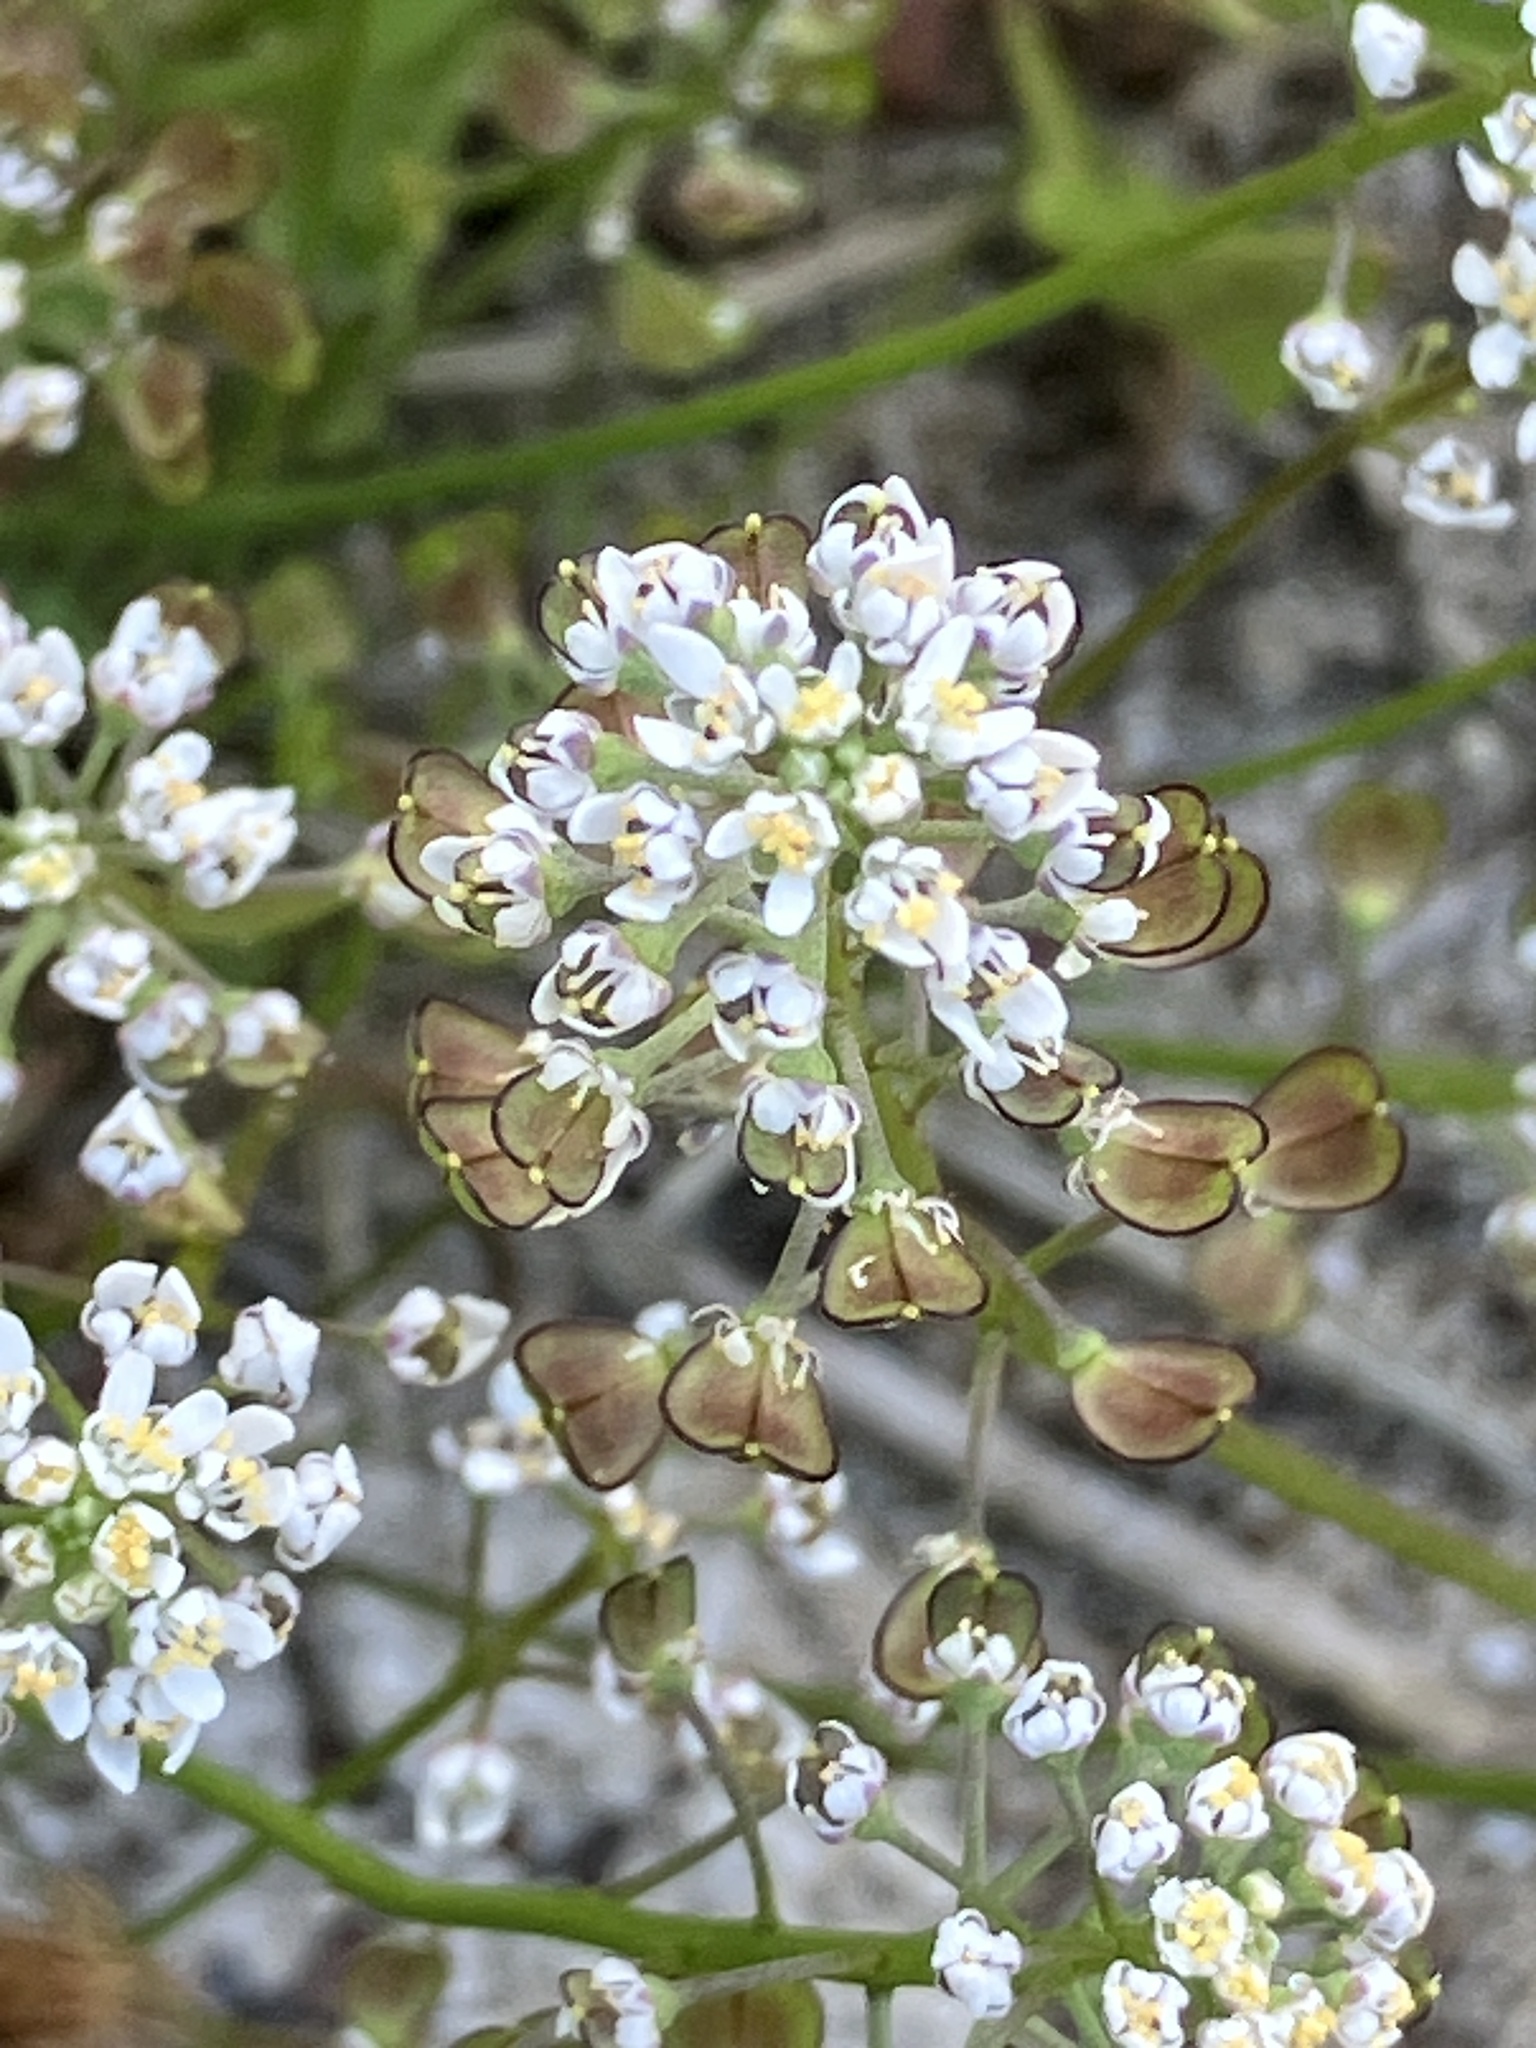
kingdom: Plantae
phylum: Tracheophyta
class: Magnoliopsida
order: Brassicales
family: Brassicaceae
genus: Teesdalia
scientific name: Teesdalia nudicaulis
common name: Shepherd's cress
